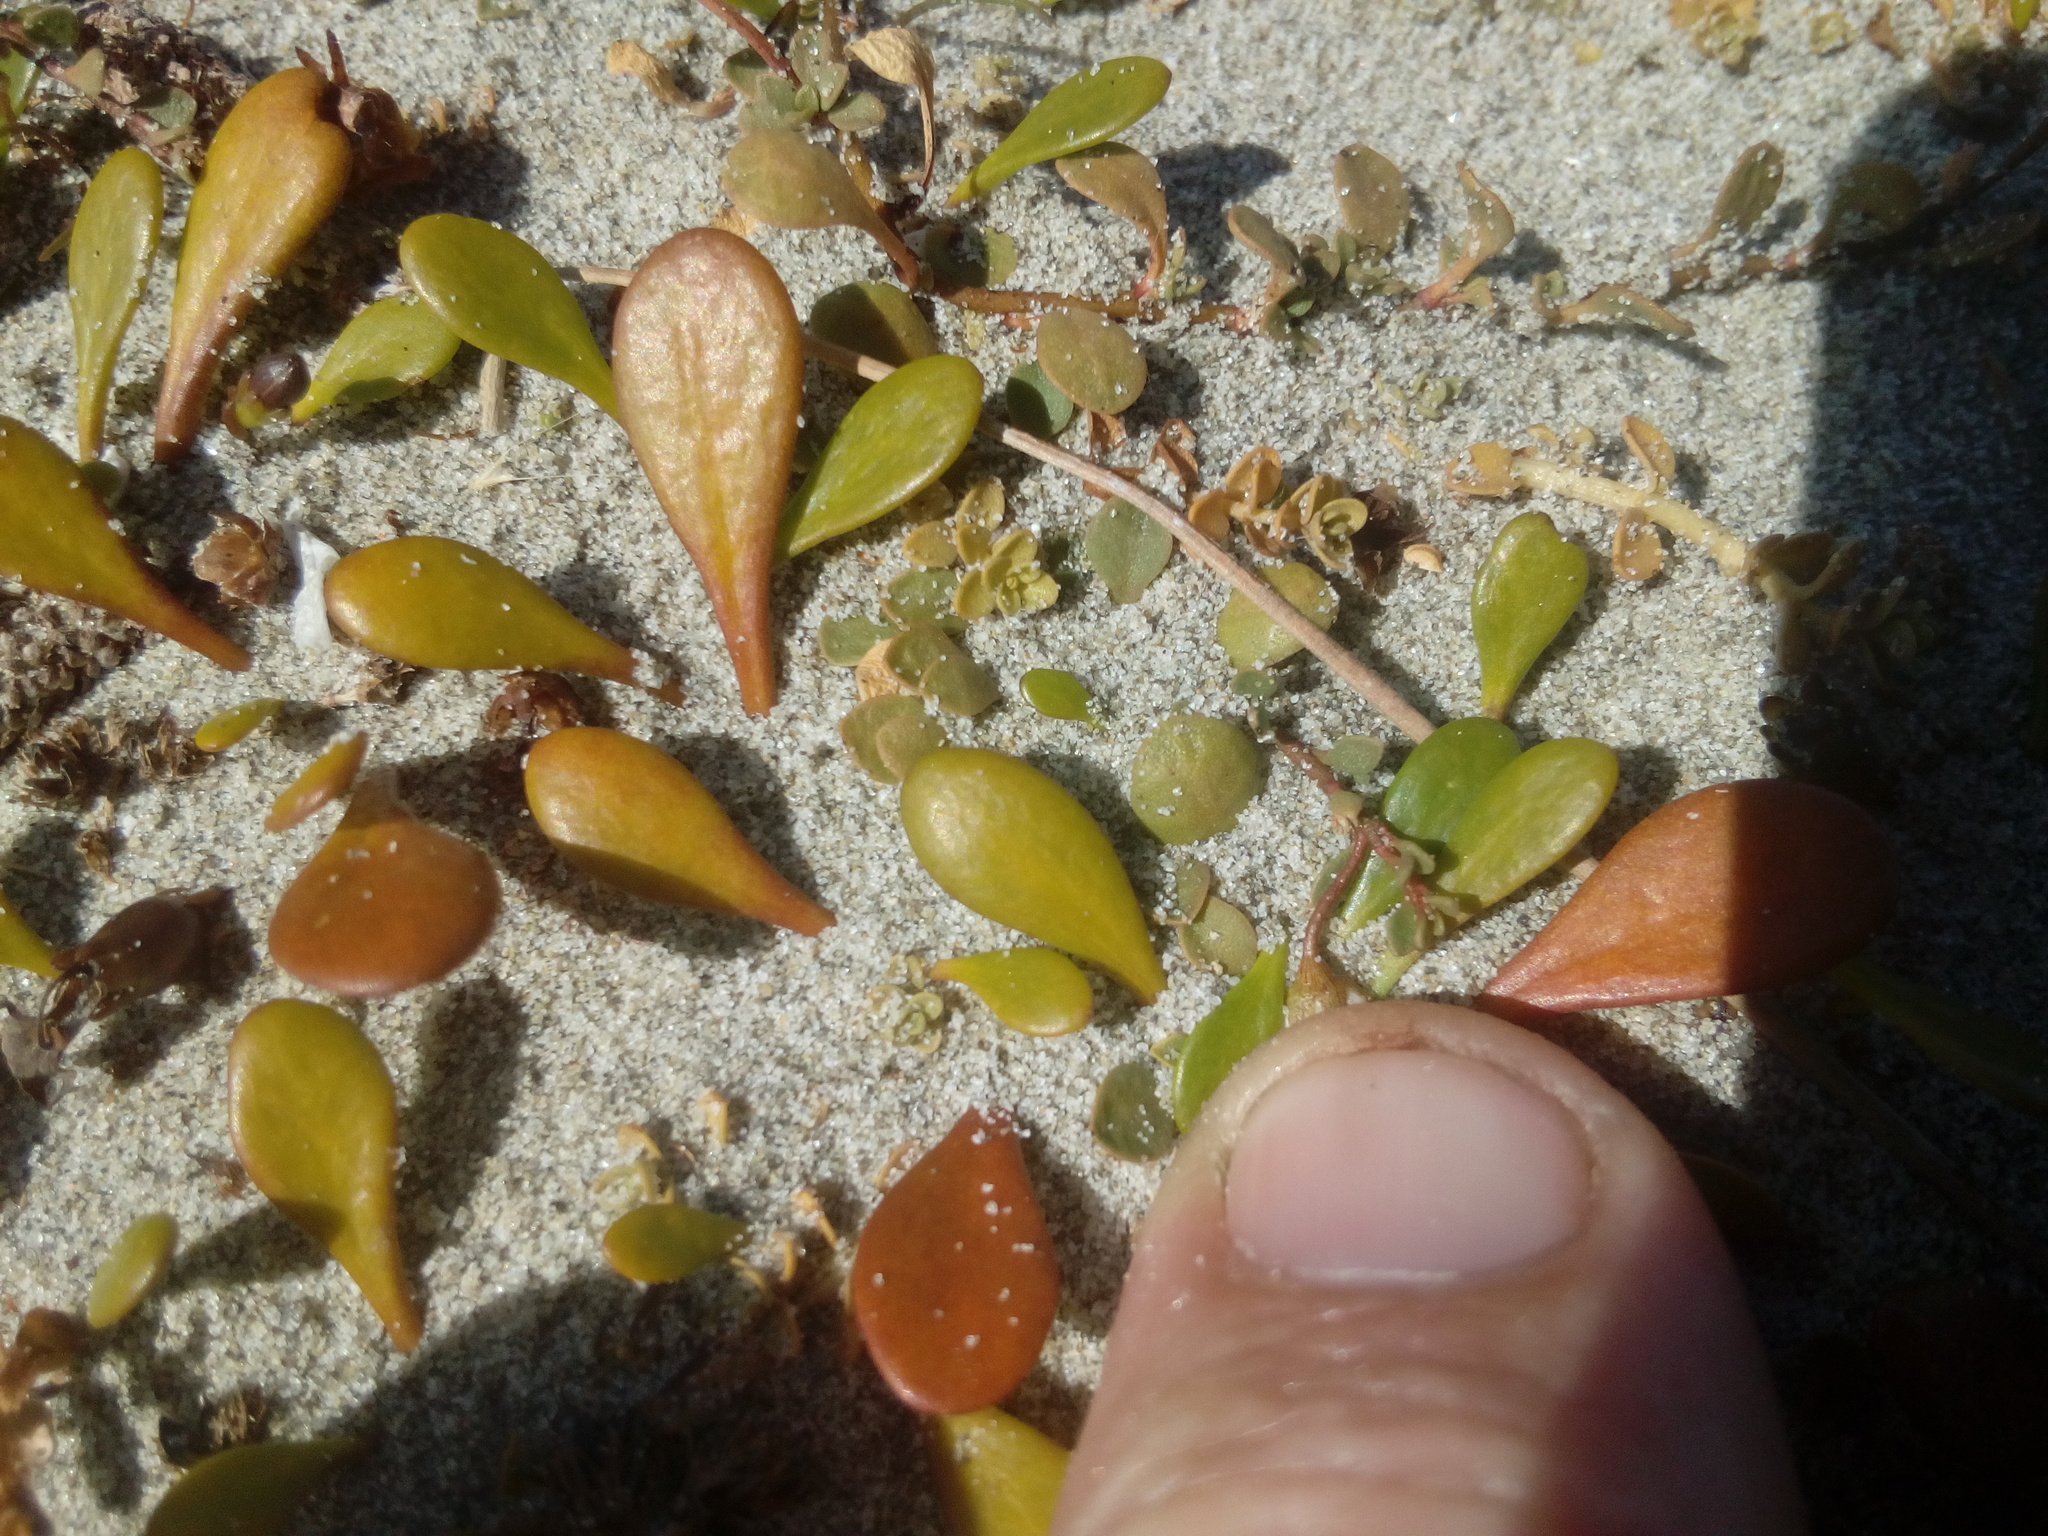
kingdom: Plantae
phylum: Tracheophyta
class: Magnoliopsida
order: Ericales
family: Primulaceae
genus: Samolus
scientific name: Samolus repens
